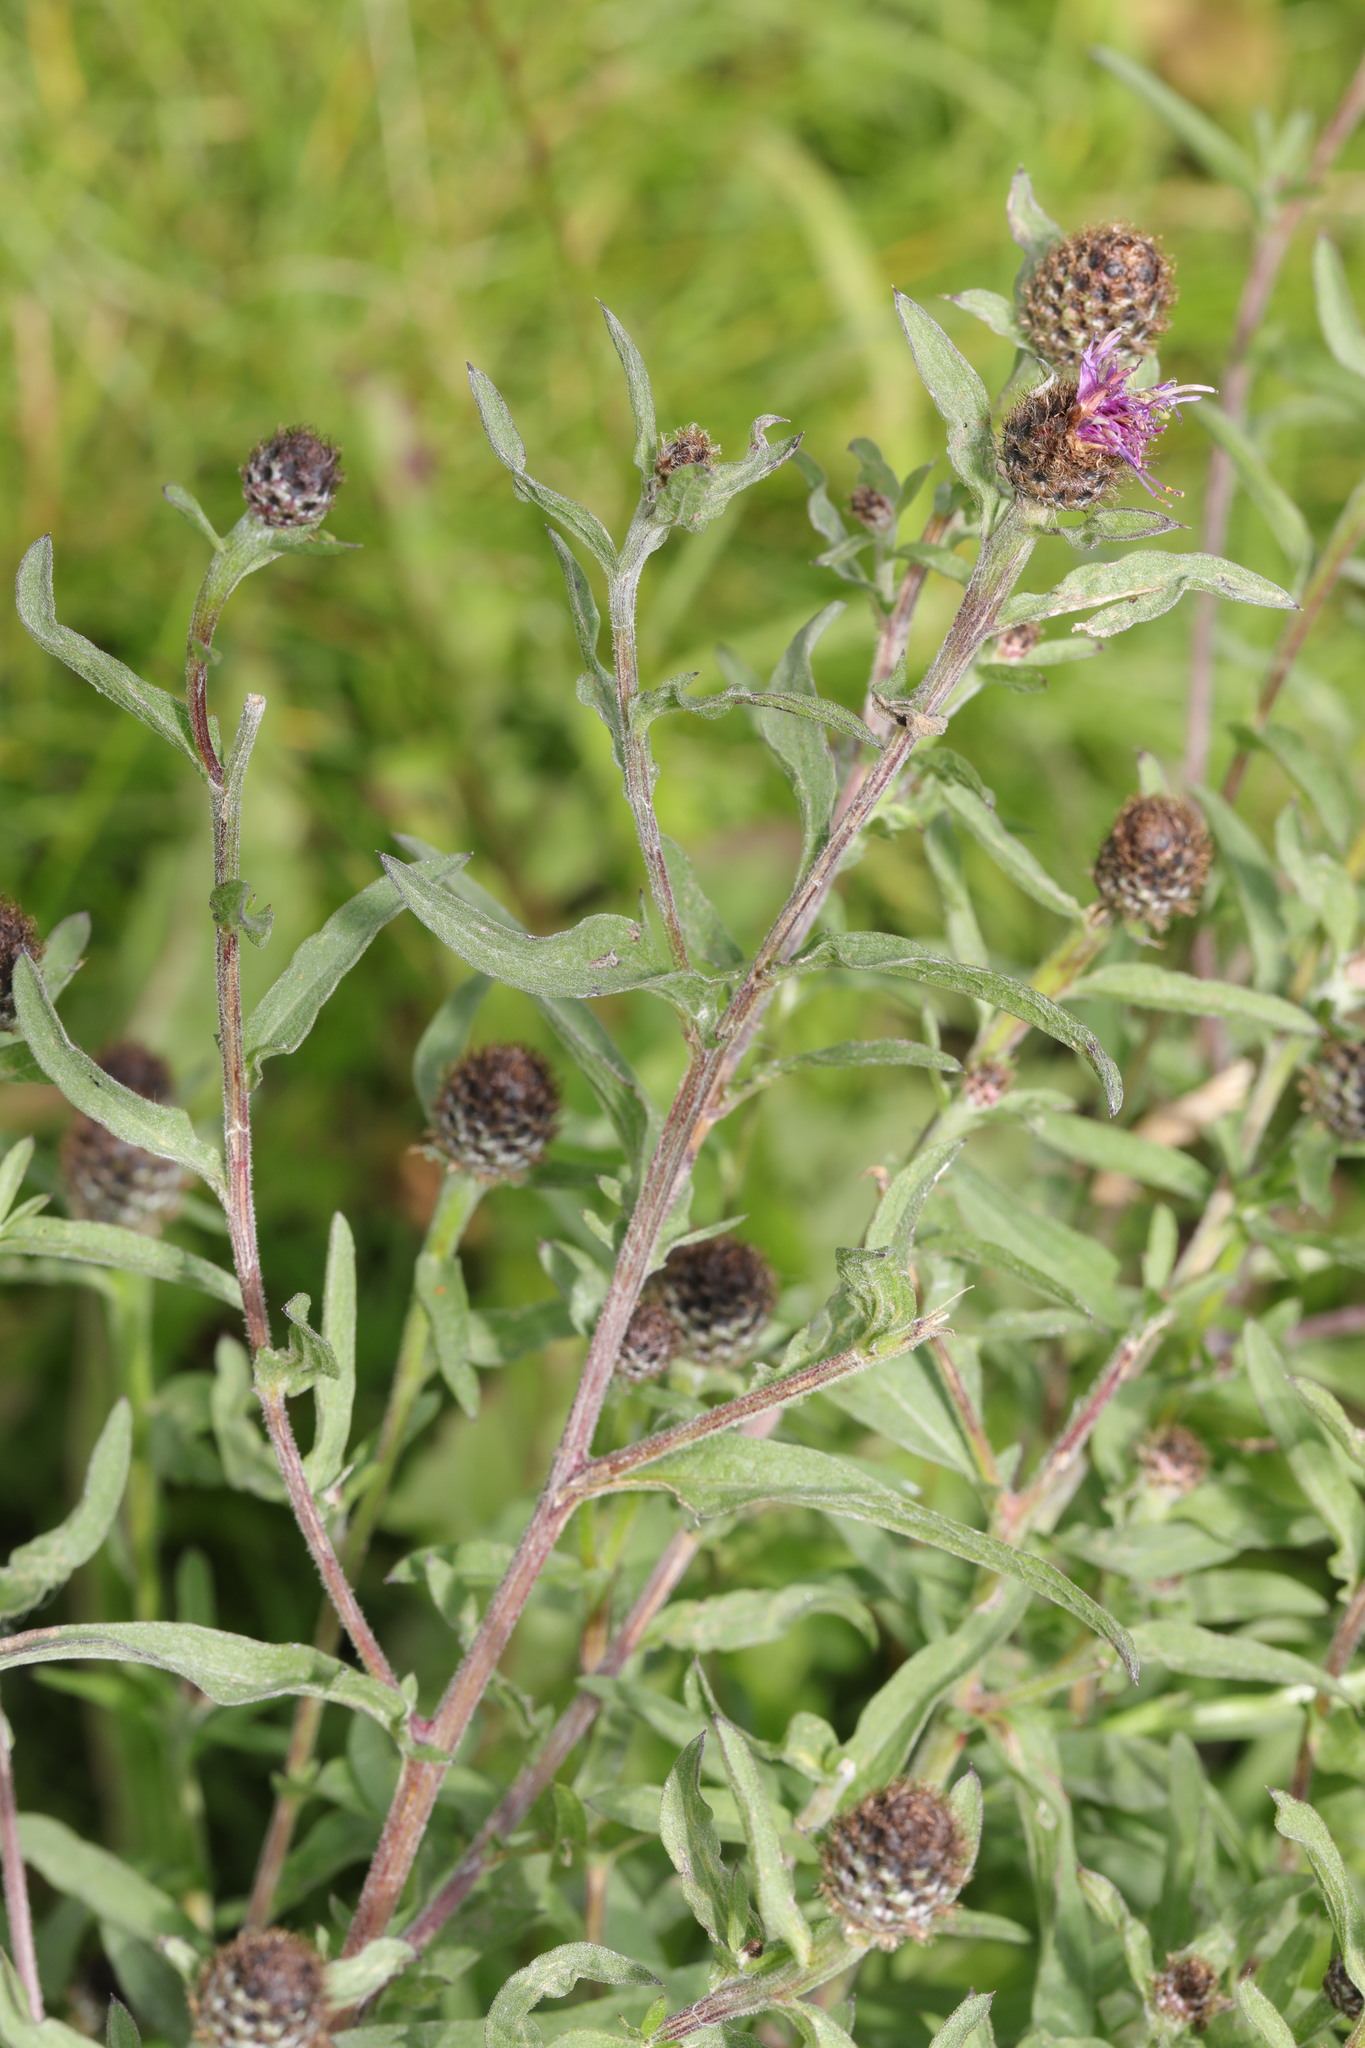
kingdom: Plantae
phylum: Tracheophyta
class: Magnoliopsida
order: Asterales
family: Asteraceae
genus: Centaurea
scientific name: Centaurea nigra
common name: Lesser knapweed
